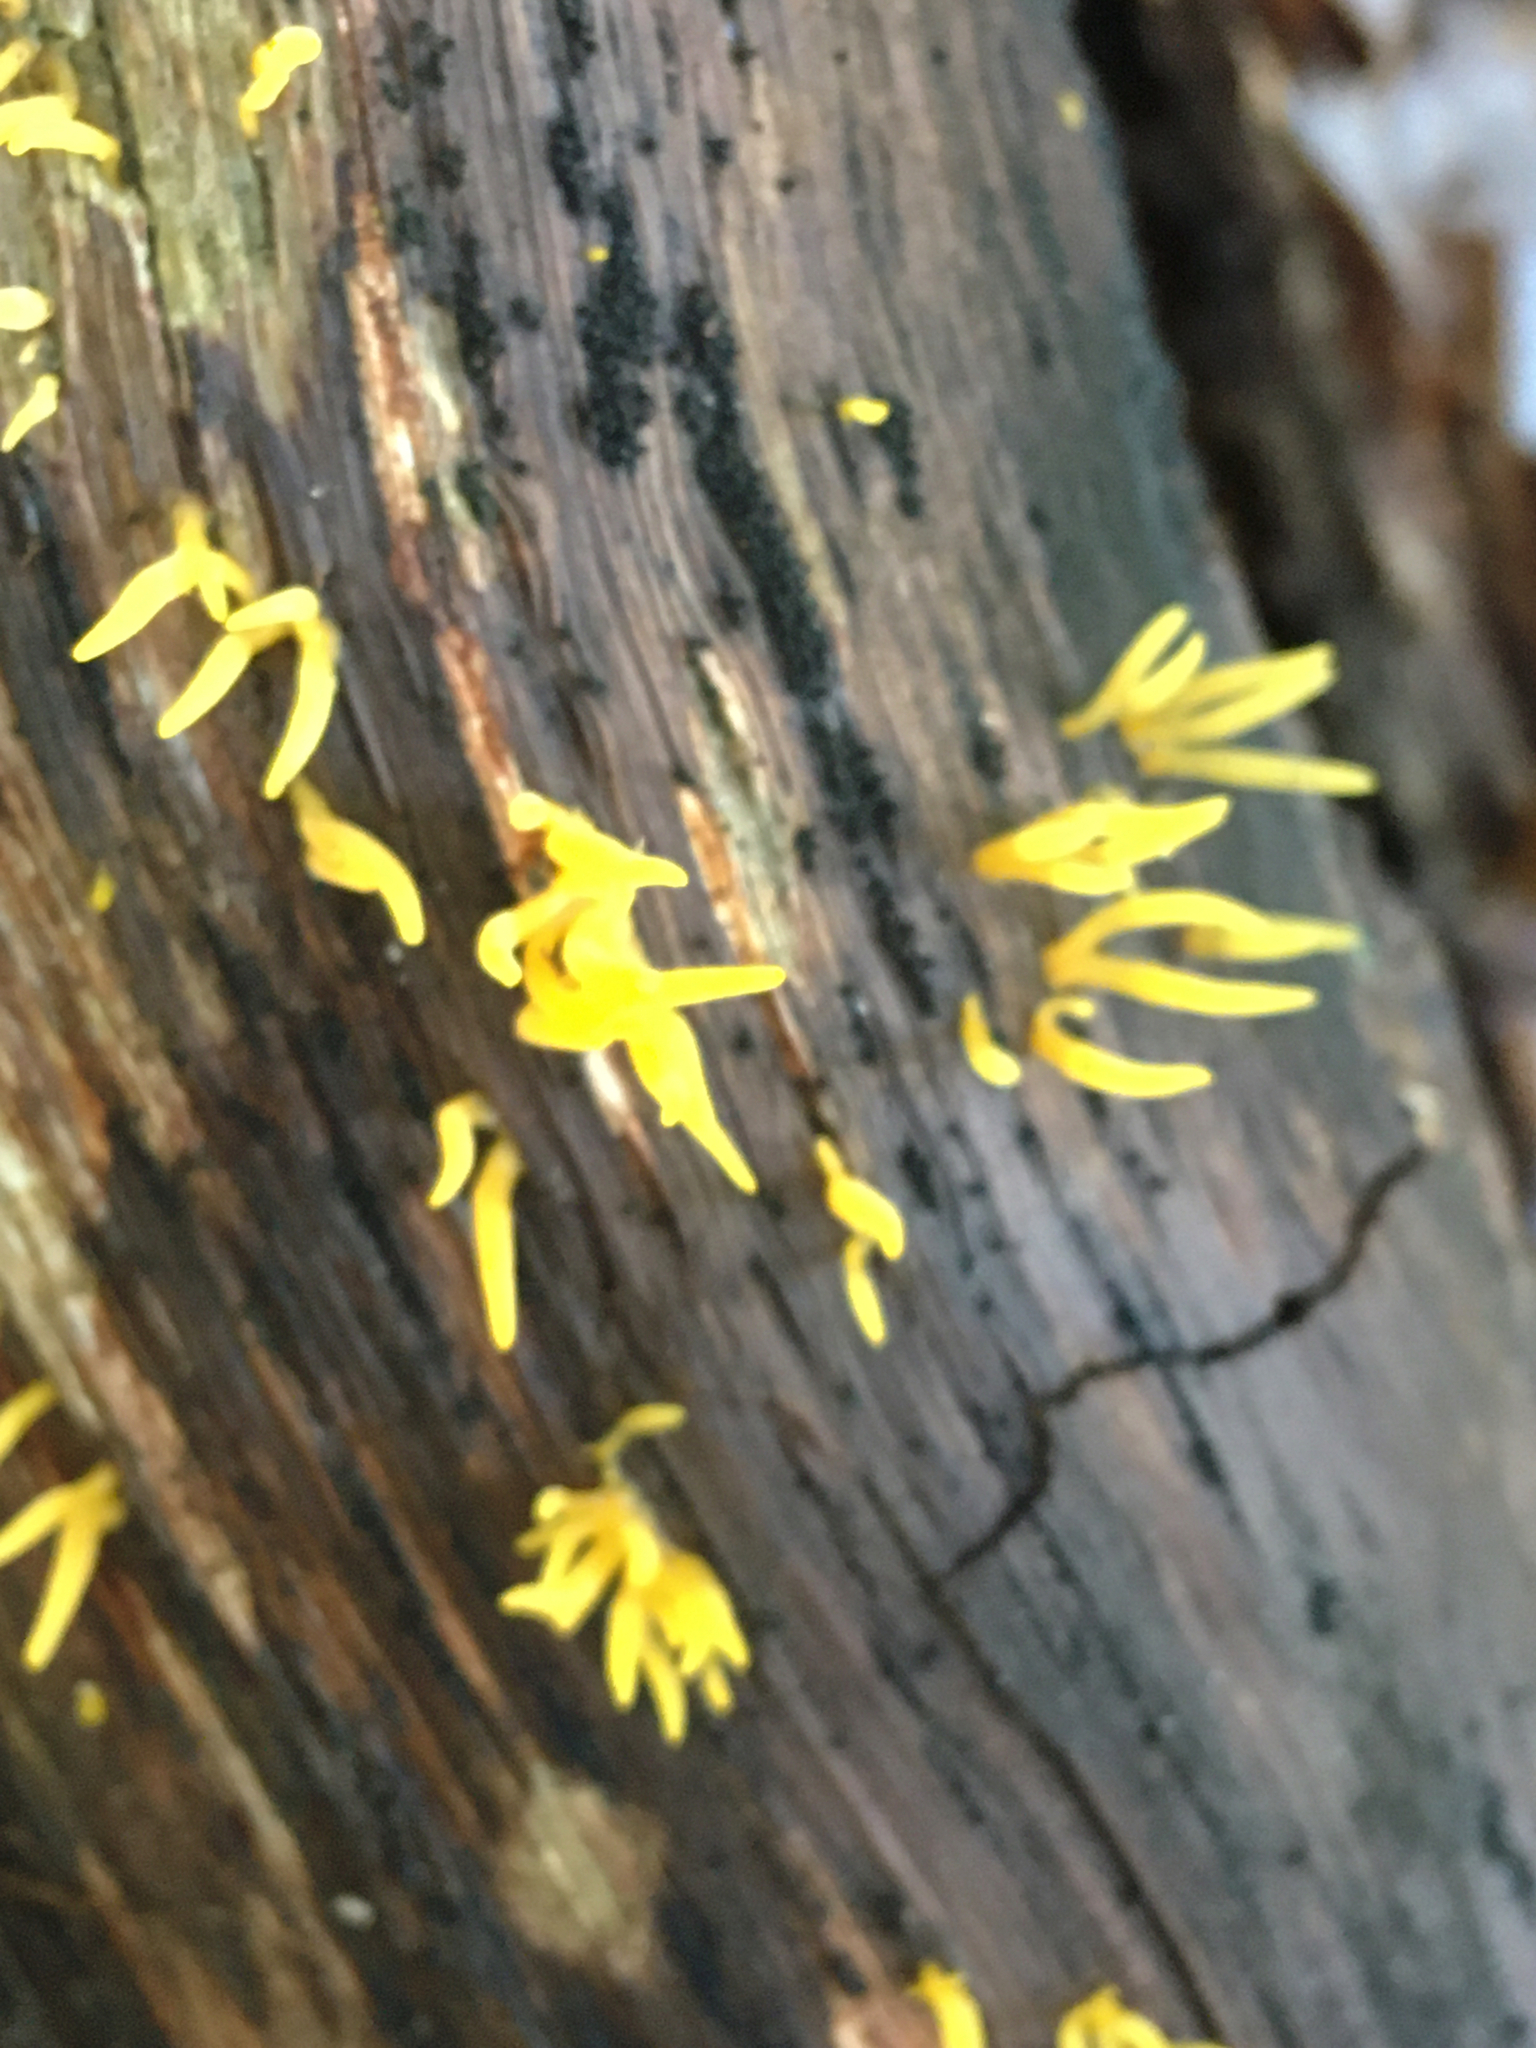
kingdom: Fungi
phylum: Basidiomycota
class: Dacrymycetes
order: Dacrymycetales
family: Dacrymycetaceae
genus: Calocera
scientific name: Calocera cornea
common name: Small stagshorn
